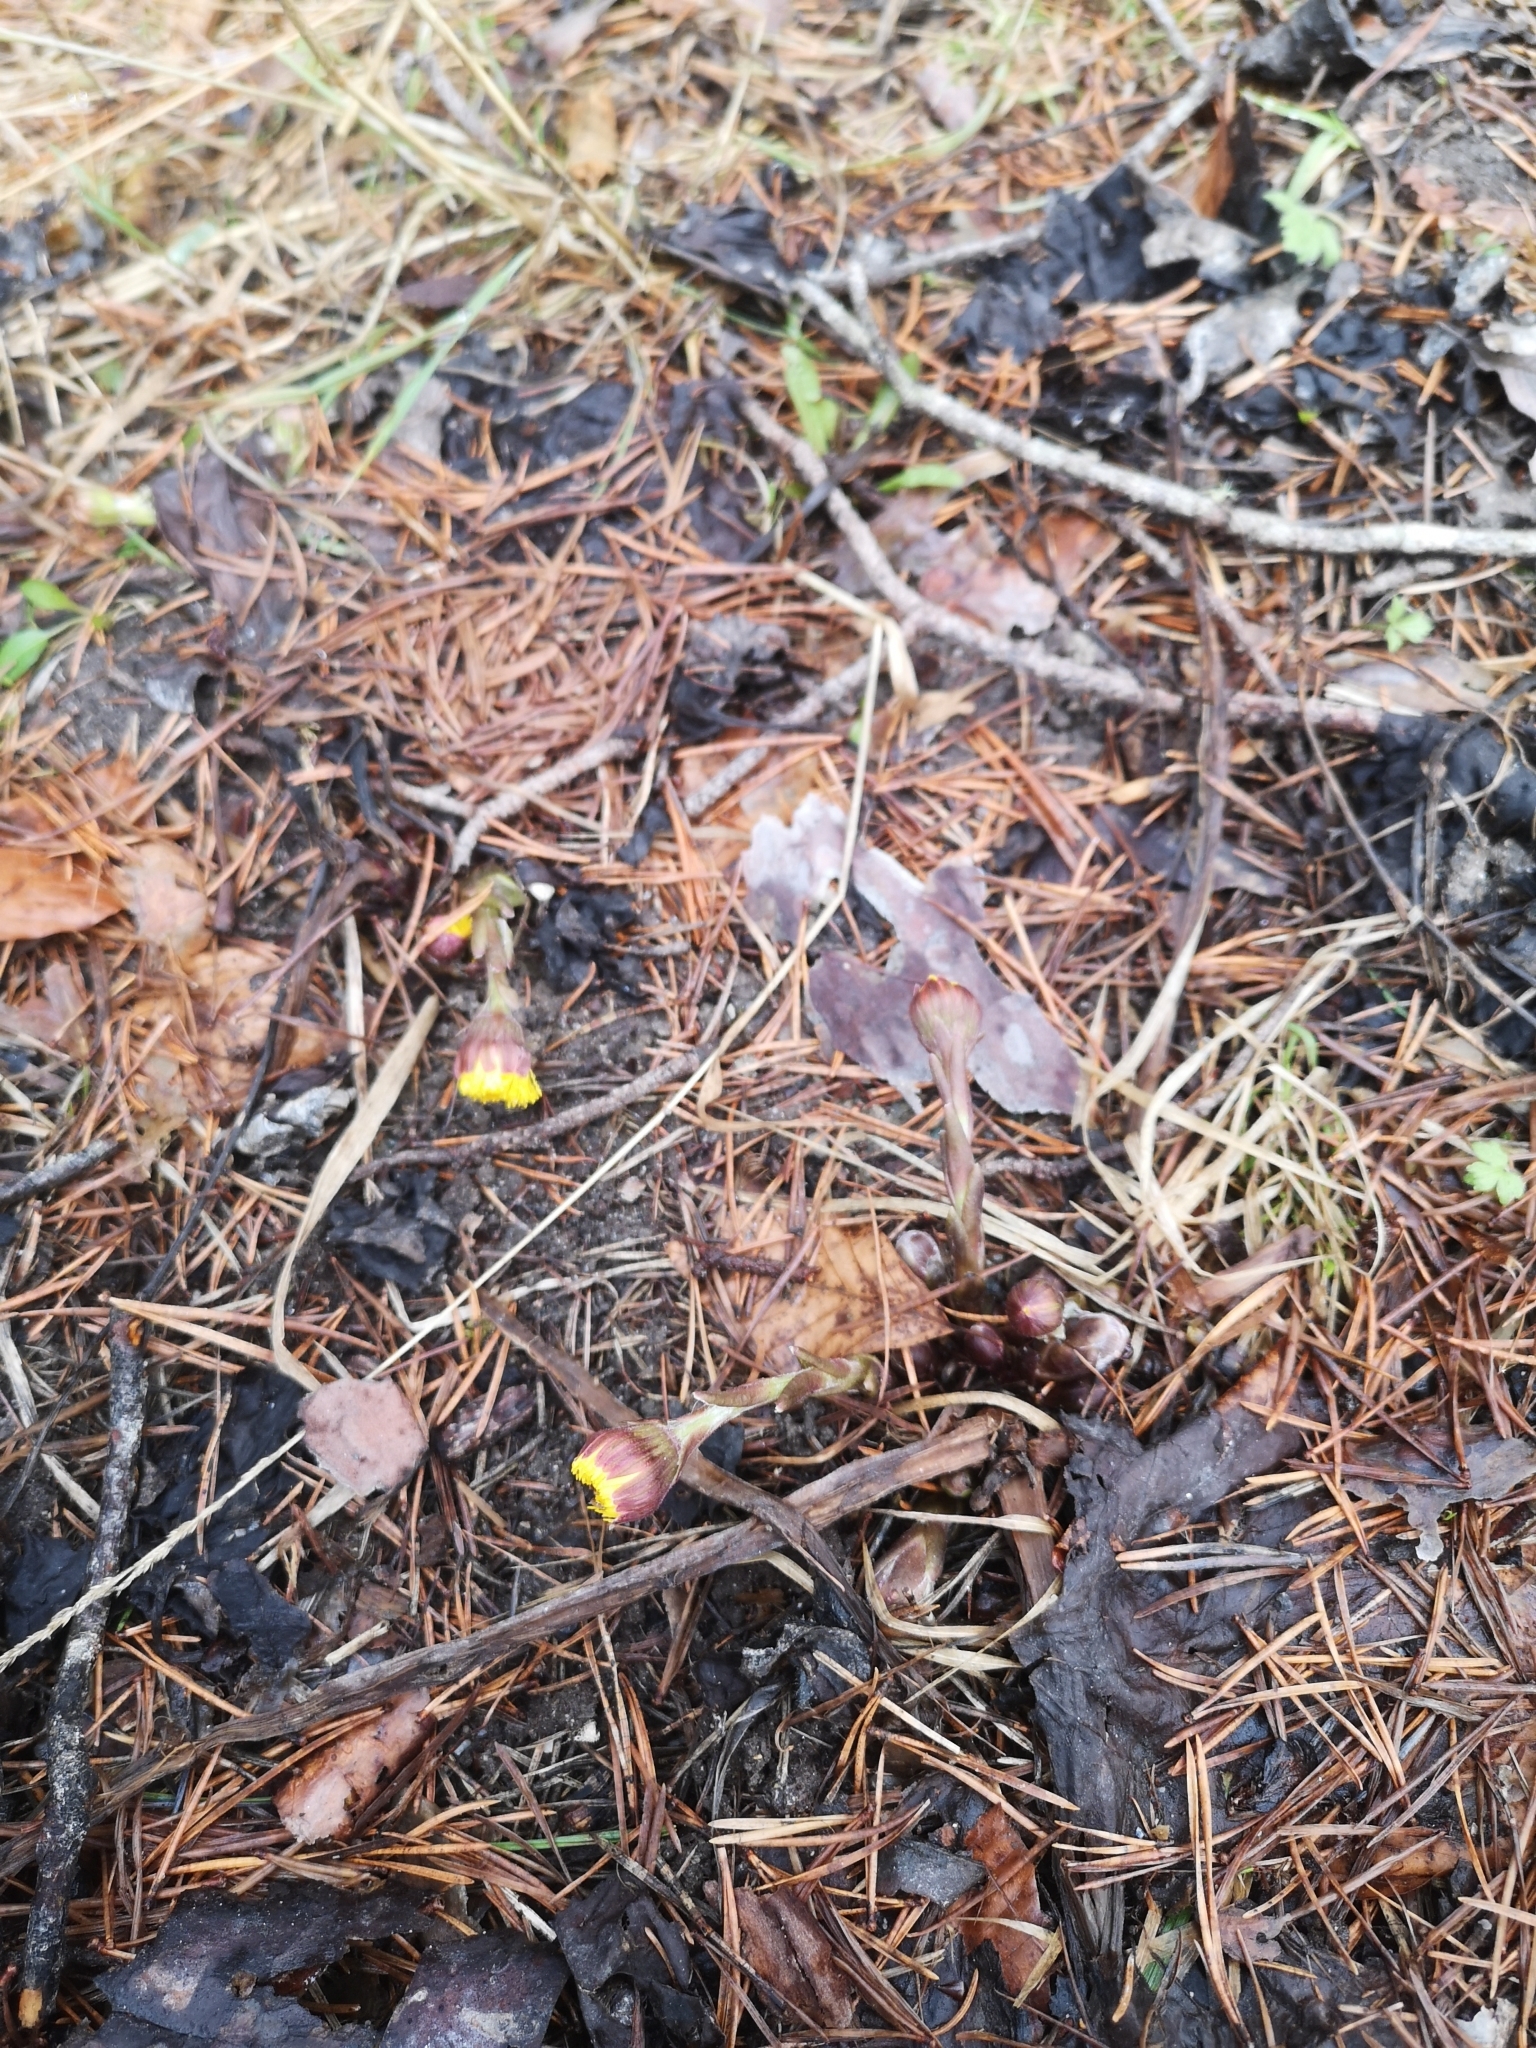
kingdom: Plantae
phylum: Tracheophyta
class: Magnoliopsida
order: Asterales
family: Asteraceae
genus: Tussilago
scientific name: Tussilago farfara
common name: Coltsfoot
